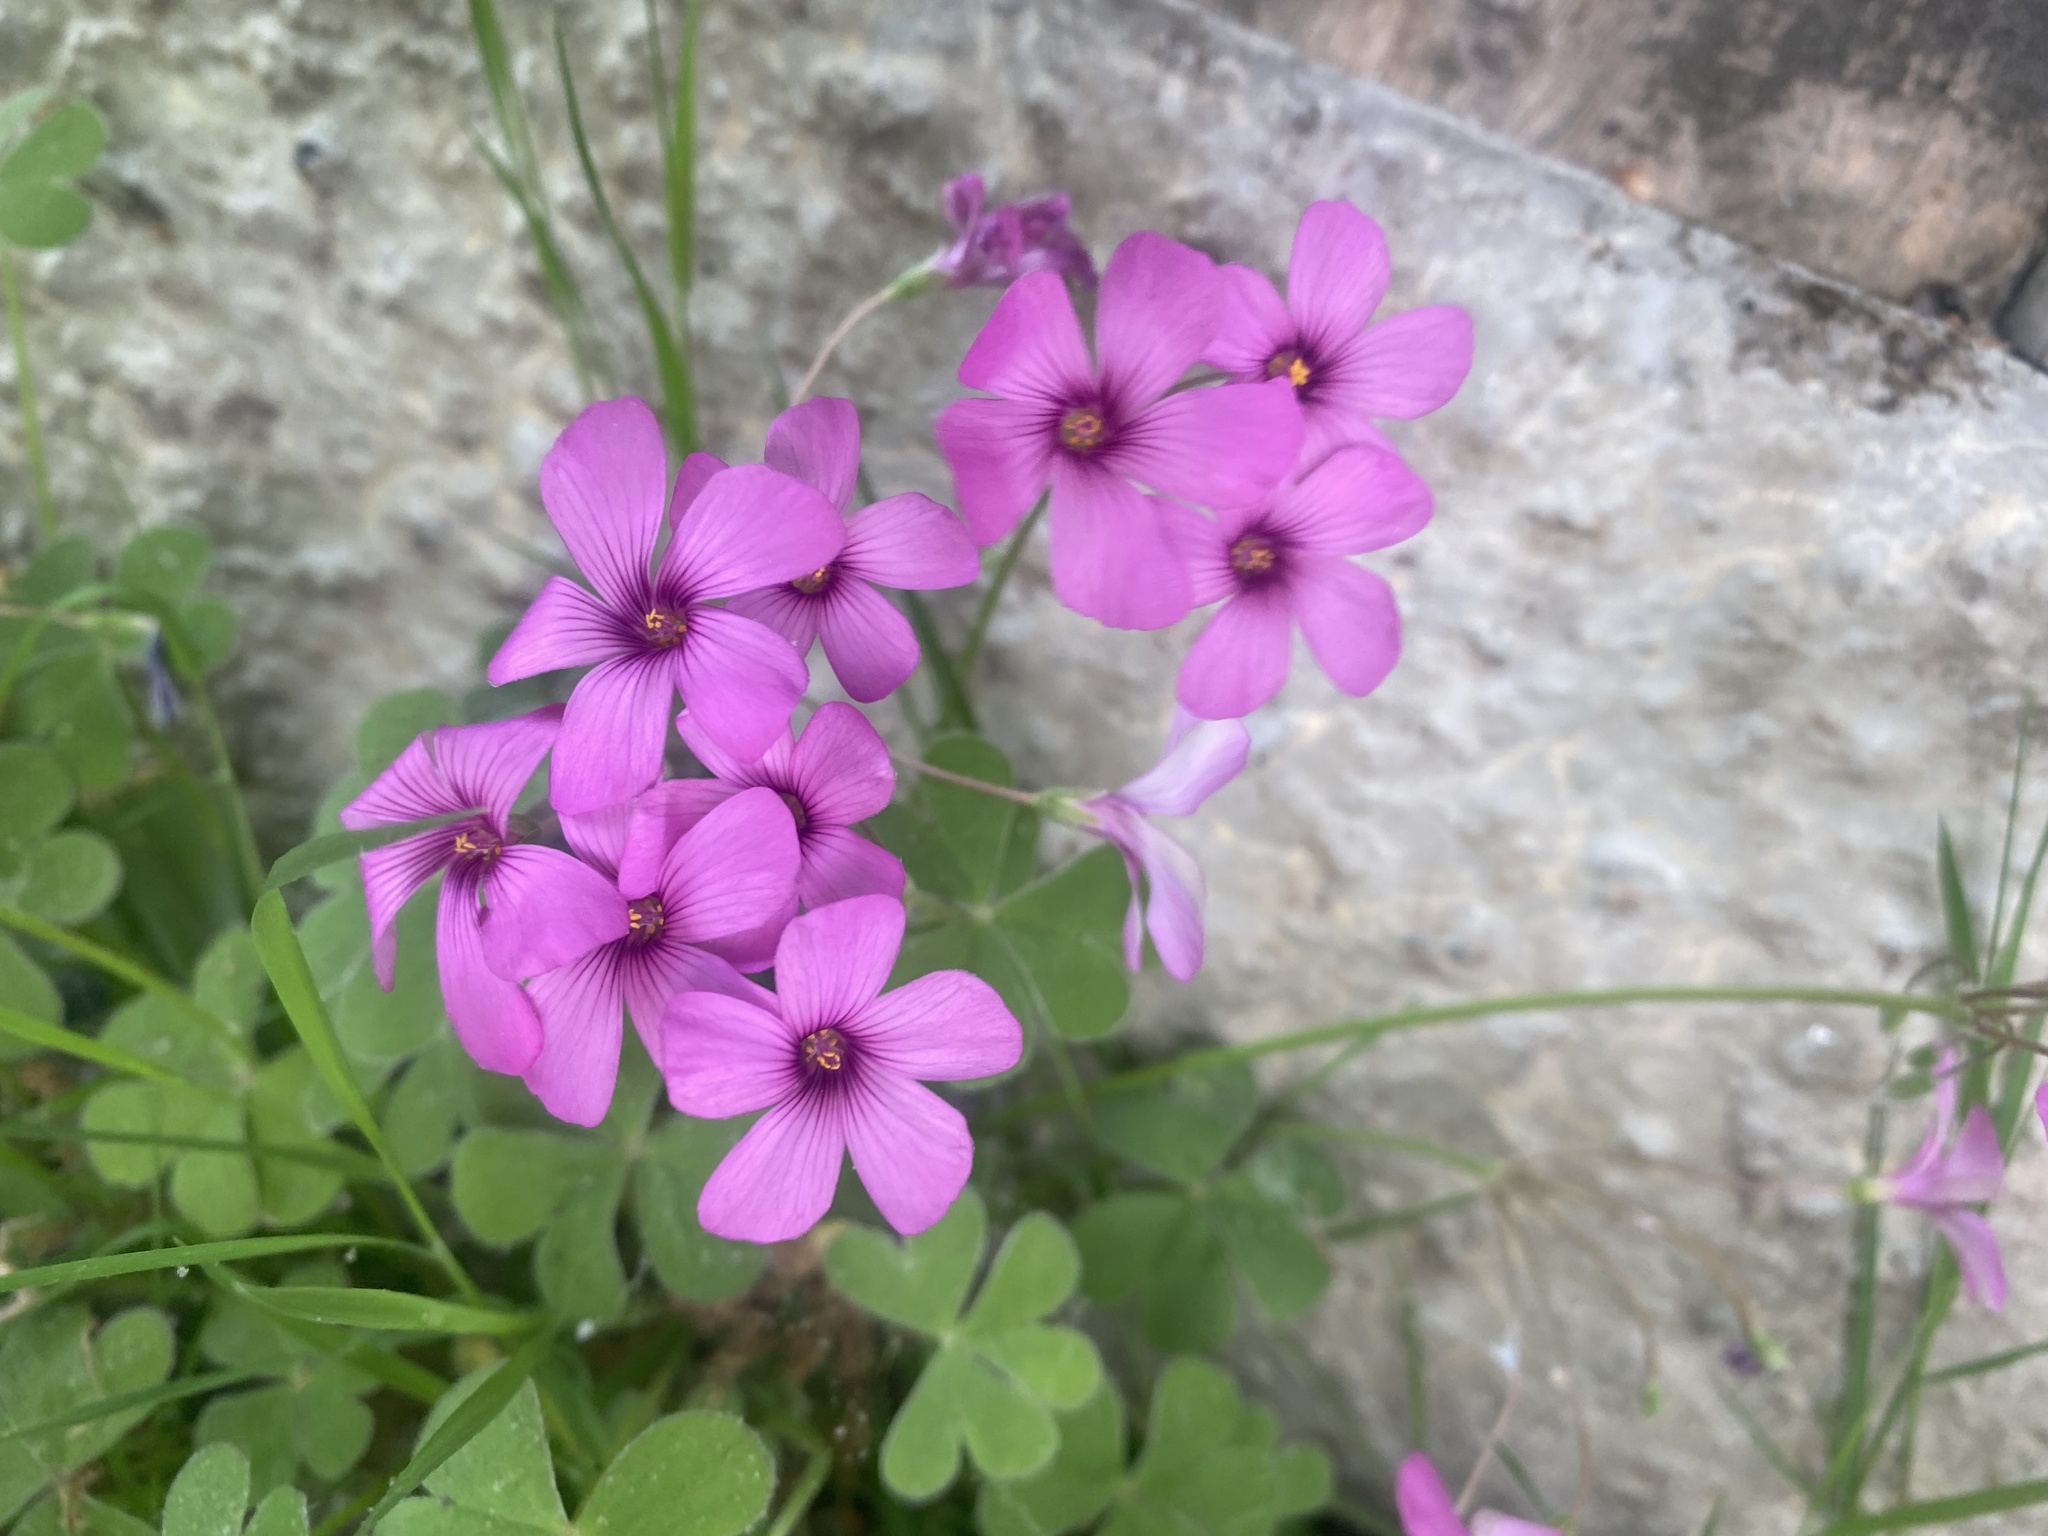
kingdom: Plantae
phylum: Tracheophyta
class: Magnoliopsida
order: Oxalidales
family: Oxalidaceae
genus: Oxalis
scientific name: Oxalis articulata
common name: Pink-sorrel
